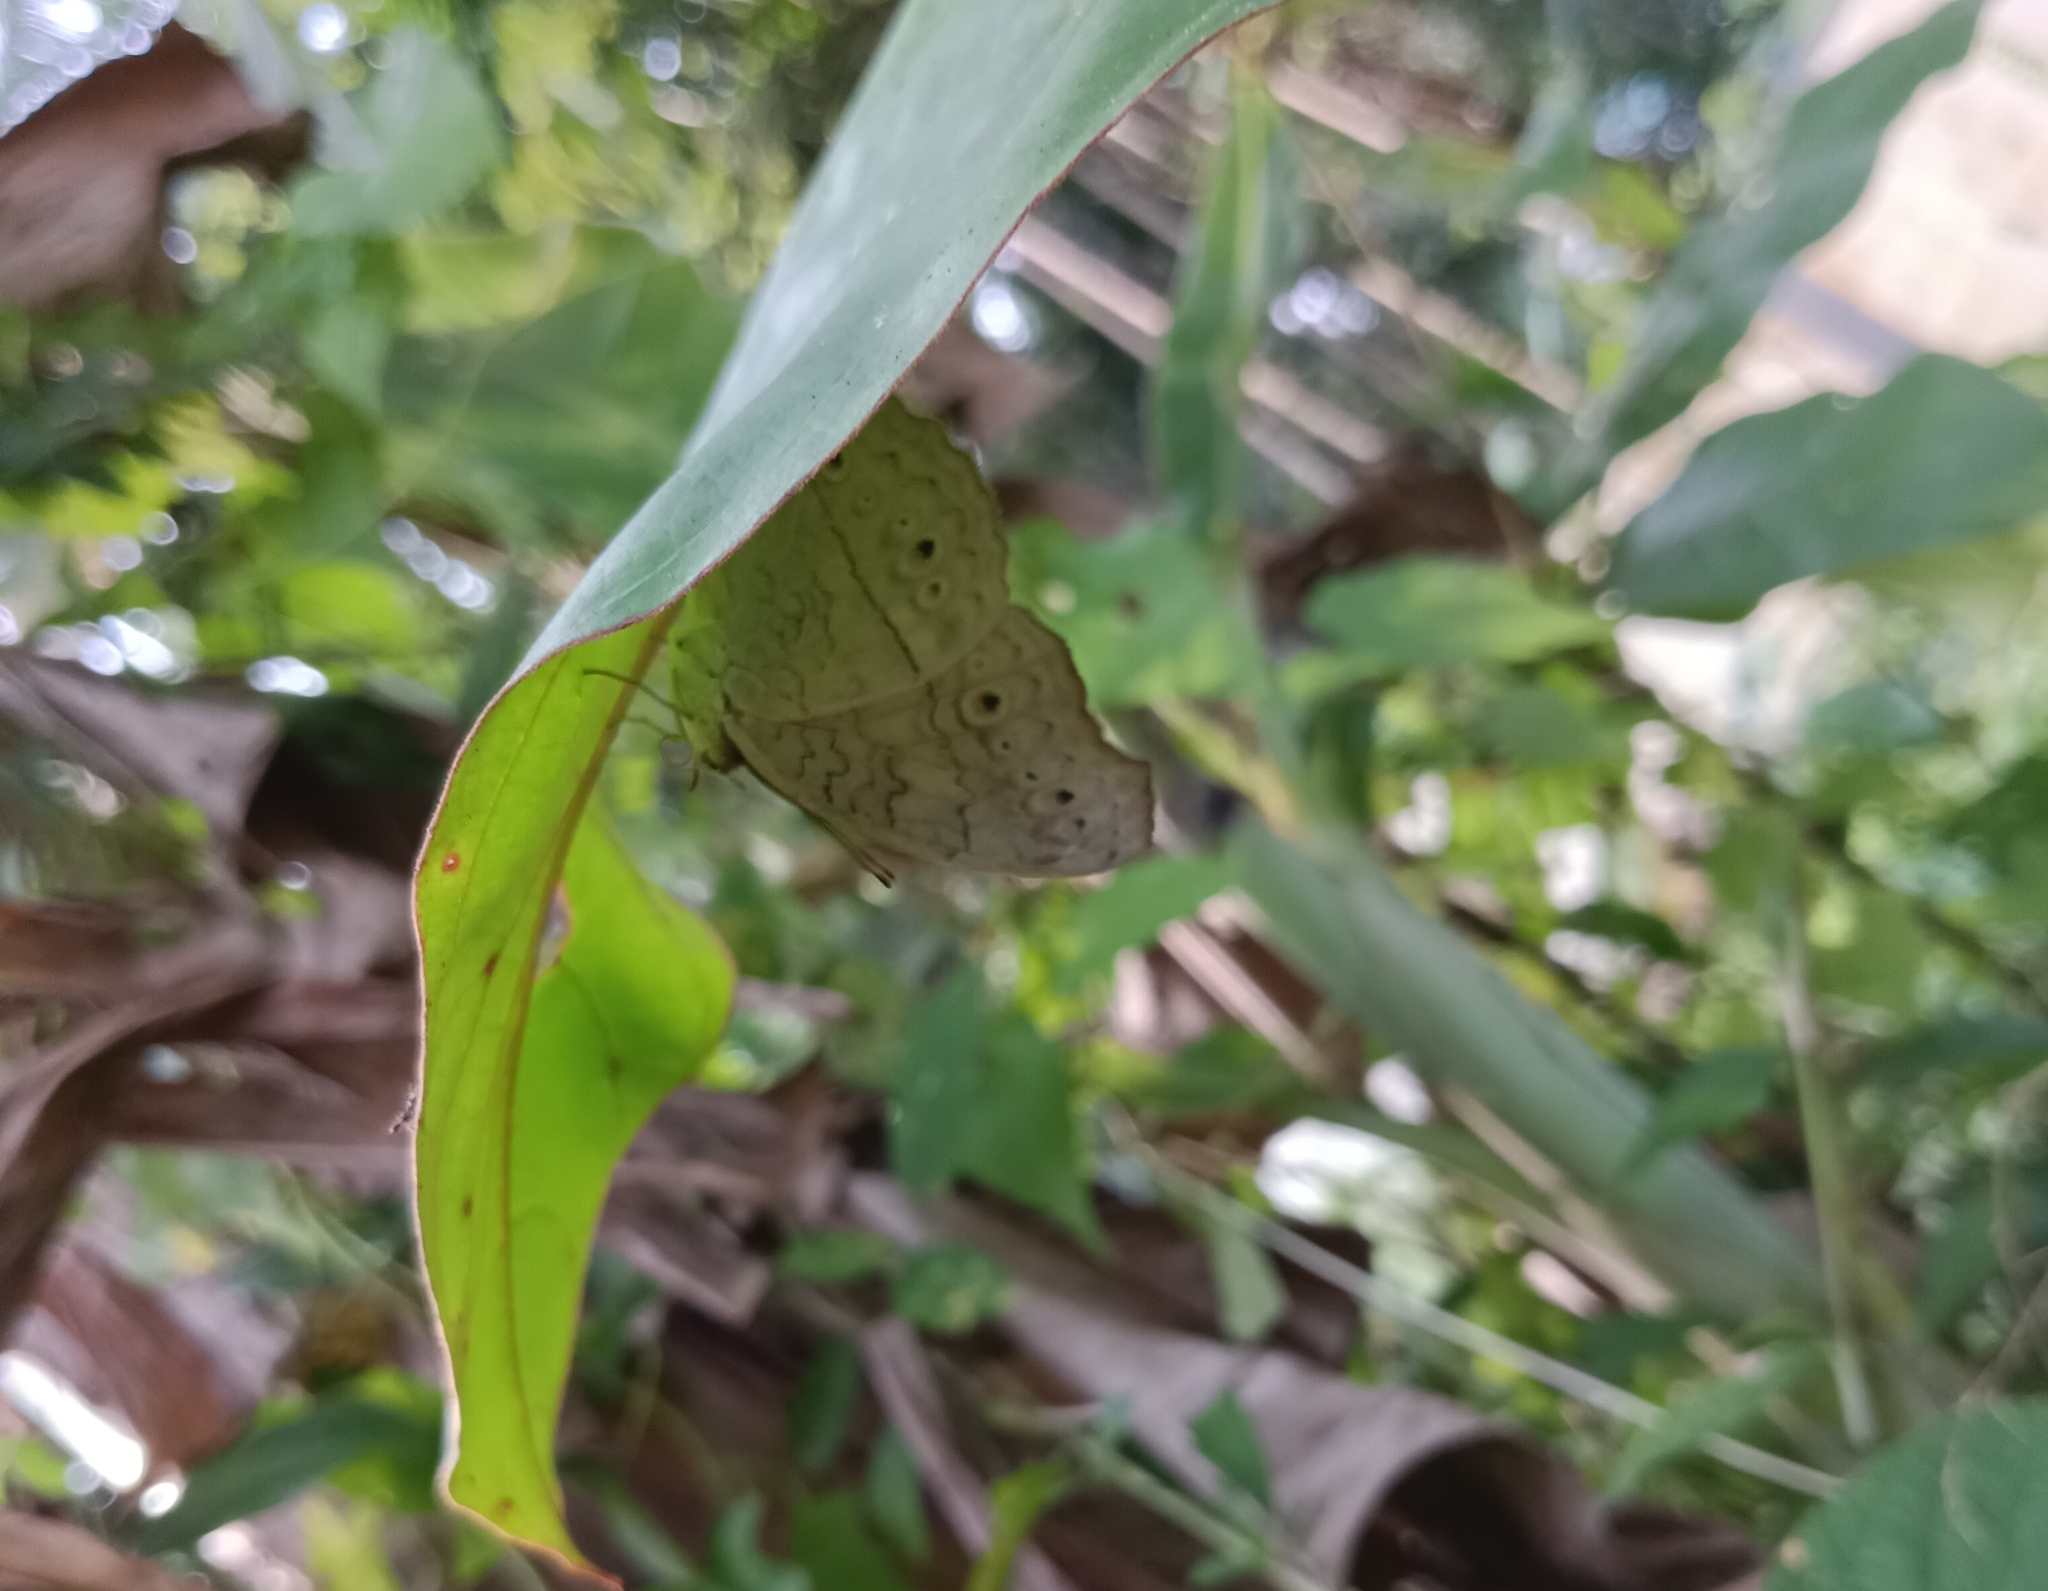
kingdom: Animalia
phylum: Arthropoda
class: Insecta
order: Lepidoptera
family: Nymphalidae
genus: Junonia
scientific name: Junonia atlites
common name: Grey pansy
